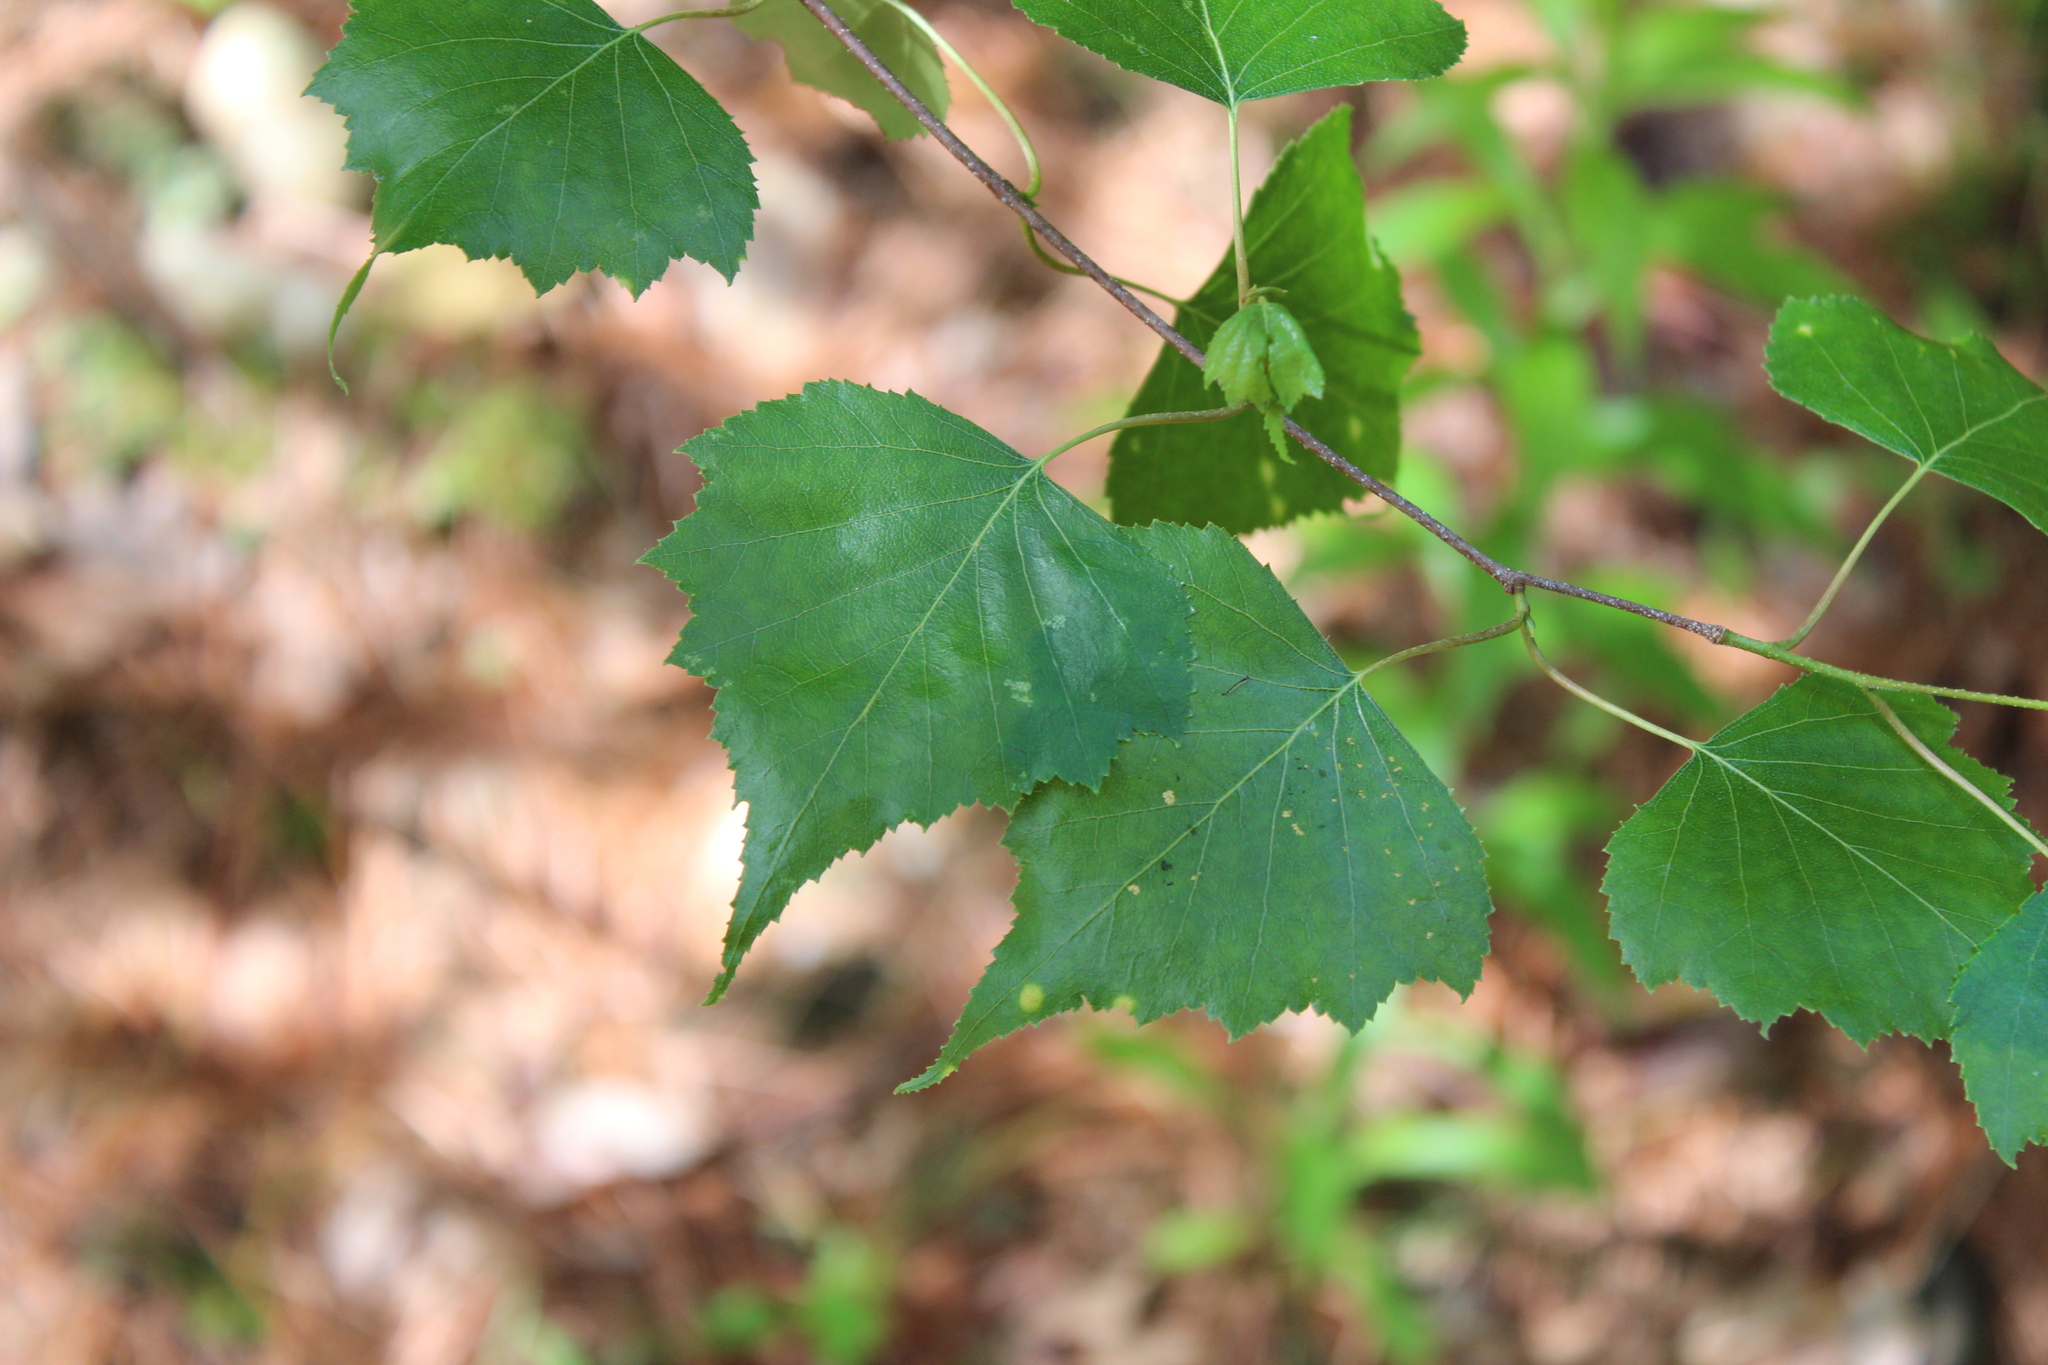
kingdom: Plantae
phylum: Tracheophyta
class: Magnoliopsida
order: Fagales
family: Betulaceae
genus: Betula
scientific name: Betula populifolia
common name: Fire birch
